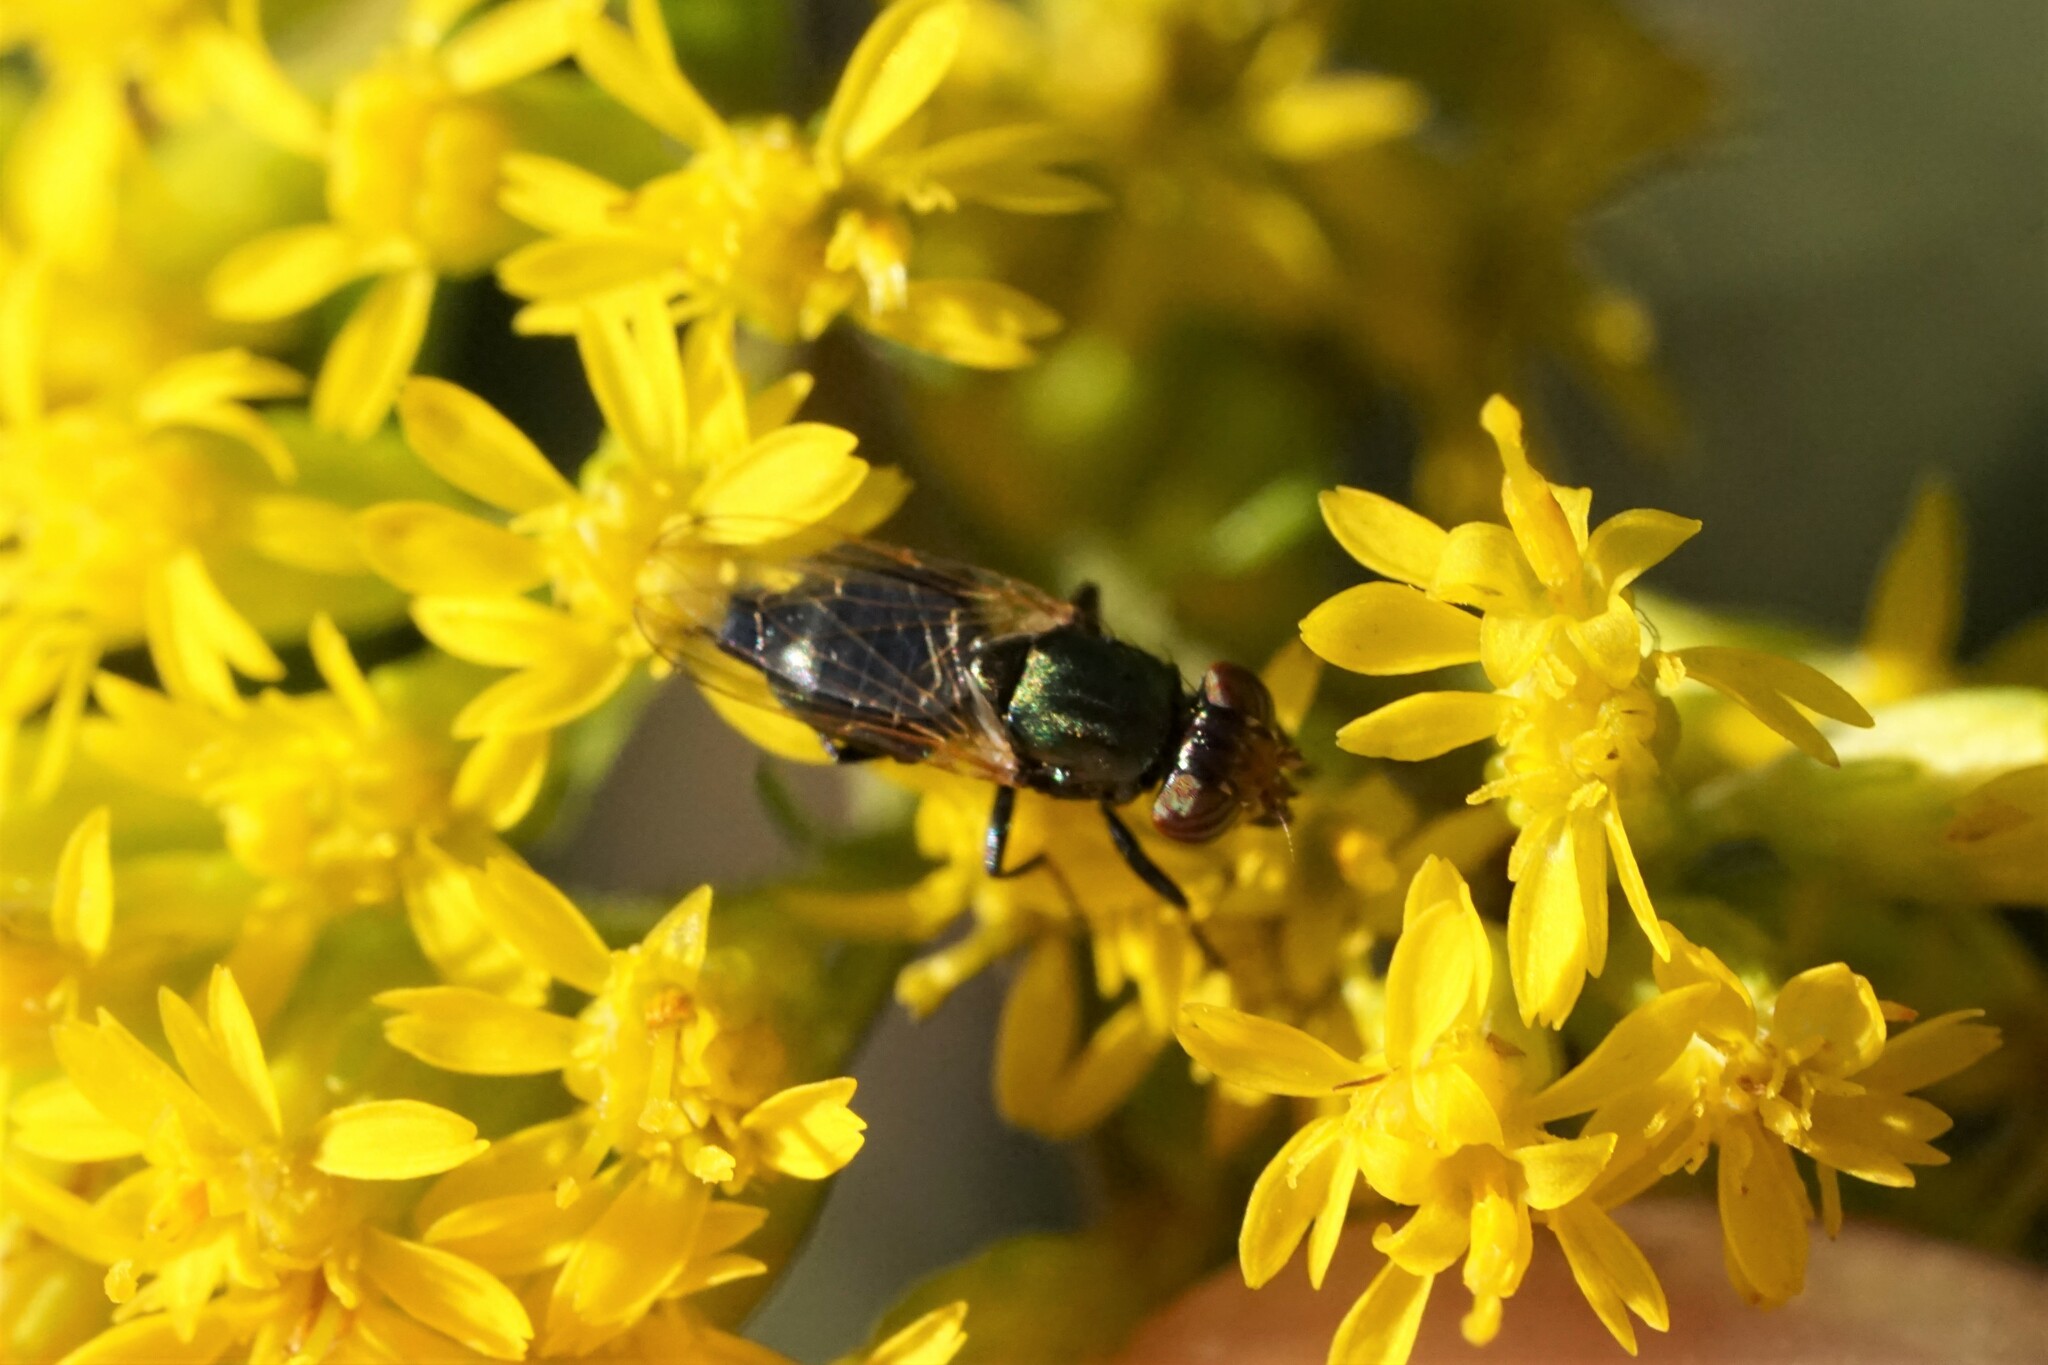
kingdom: Animalia
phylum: Arthropoda
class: Insecta
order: Diptera
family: Ulidiidae
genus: Physiphora
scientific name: Physiphora alceae
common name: Picture-winged fly
